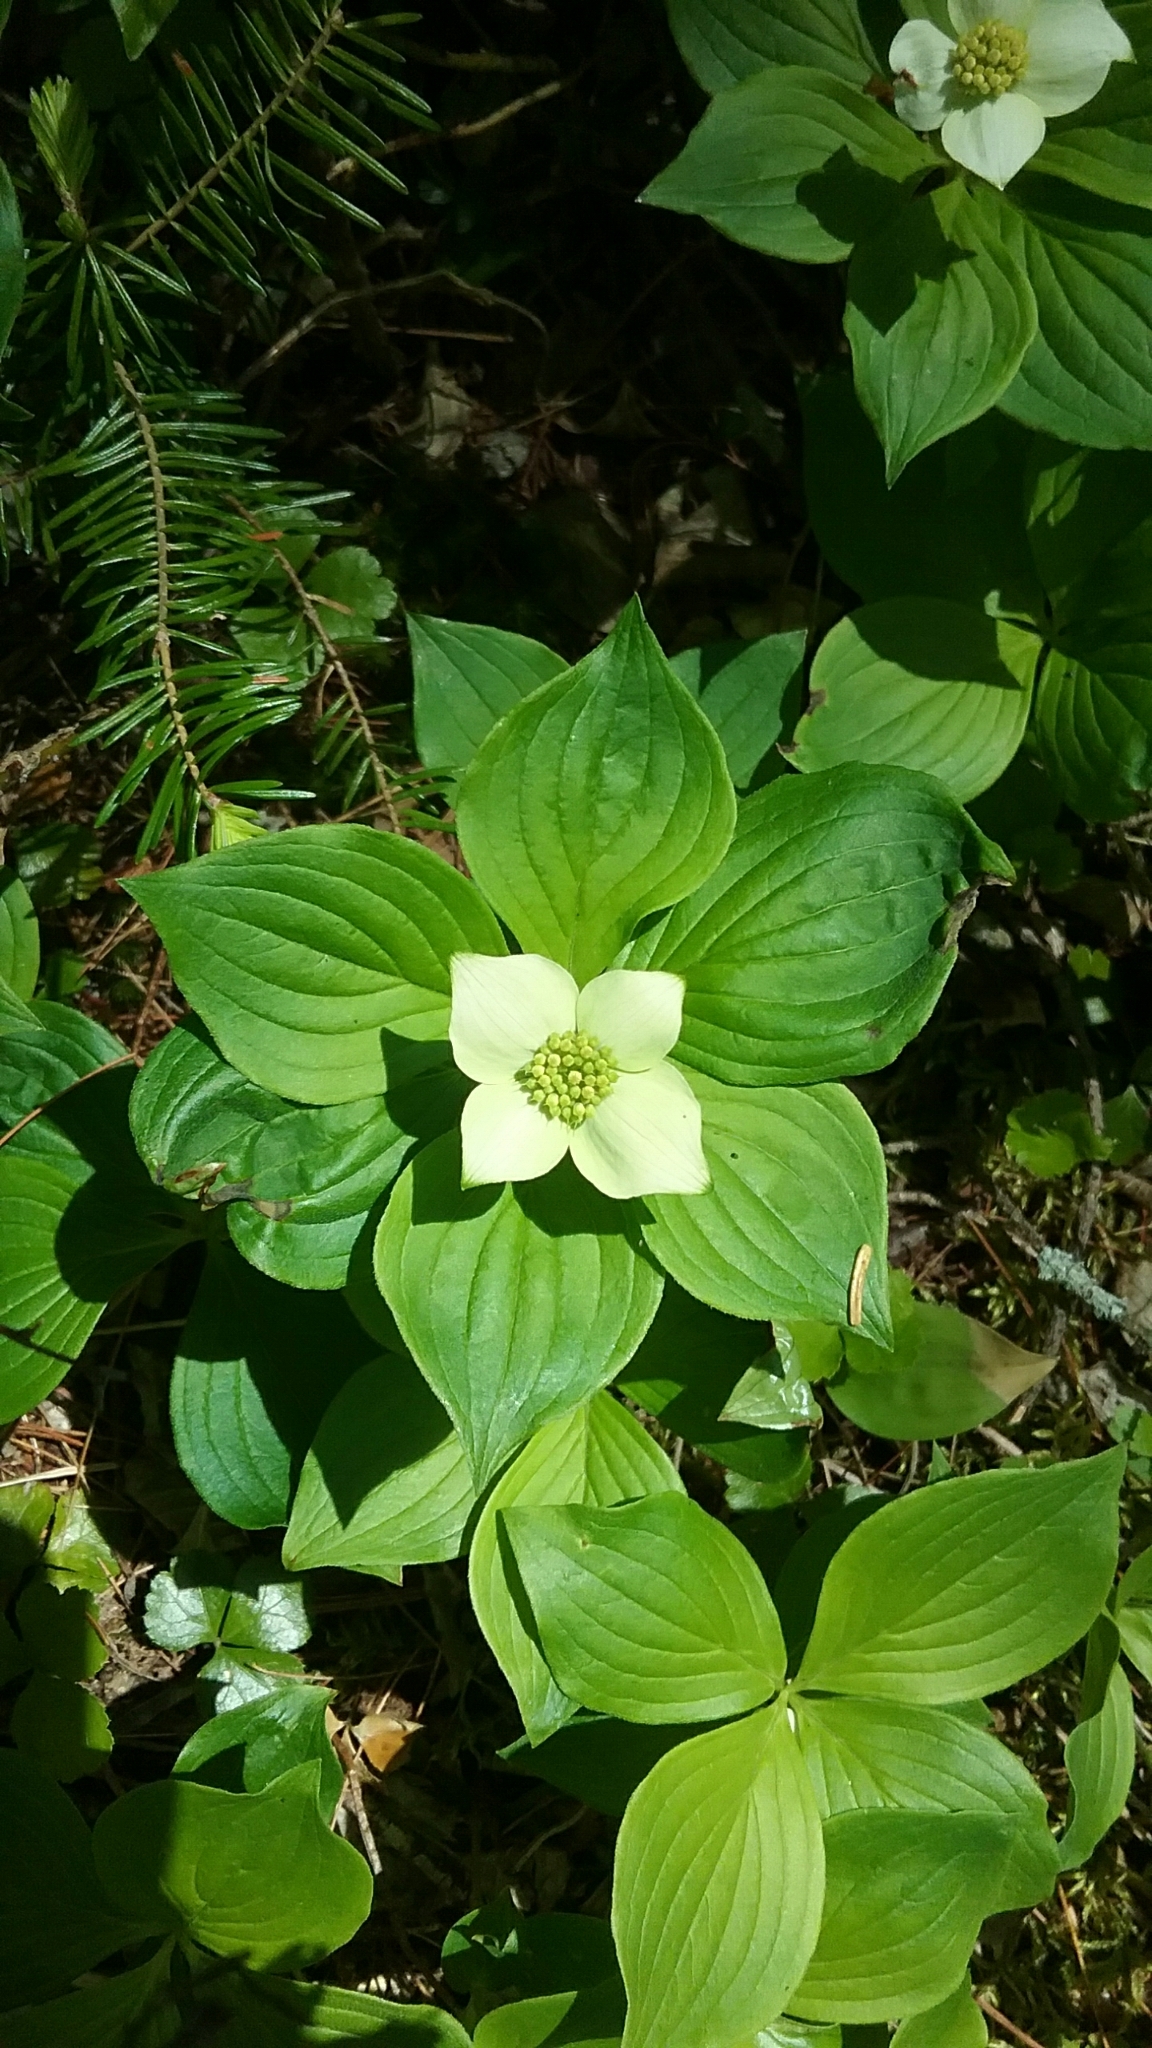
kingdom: Plantae
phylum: Tracheophyta
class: Magnoliopsida
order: Cornales
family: Cornaceae
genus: Cornus
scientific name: Cornus canadensis
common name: Creeping dogwood
